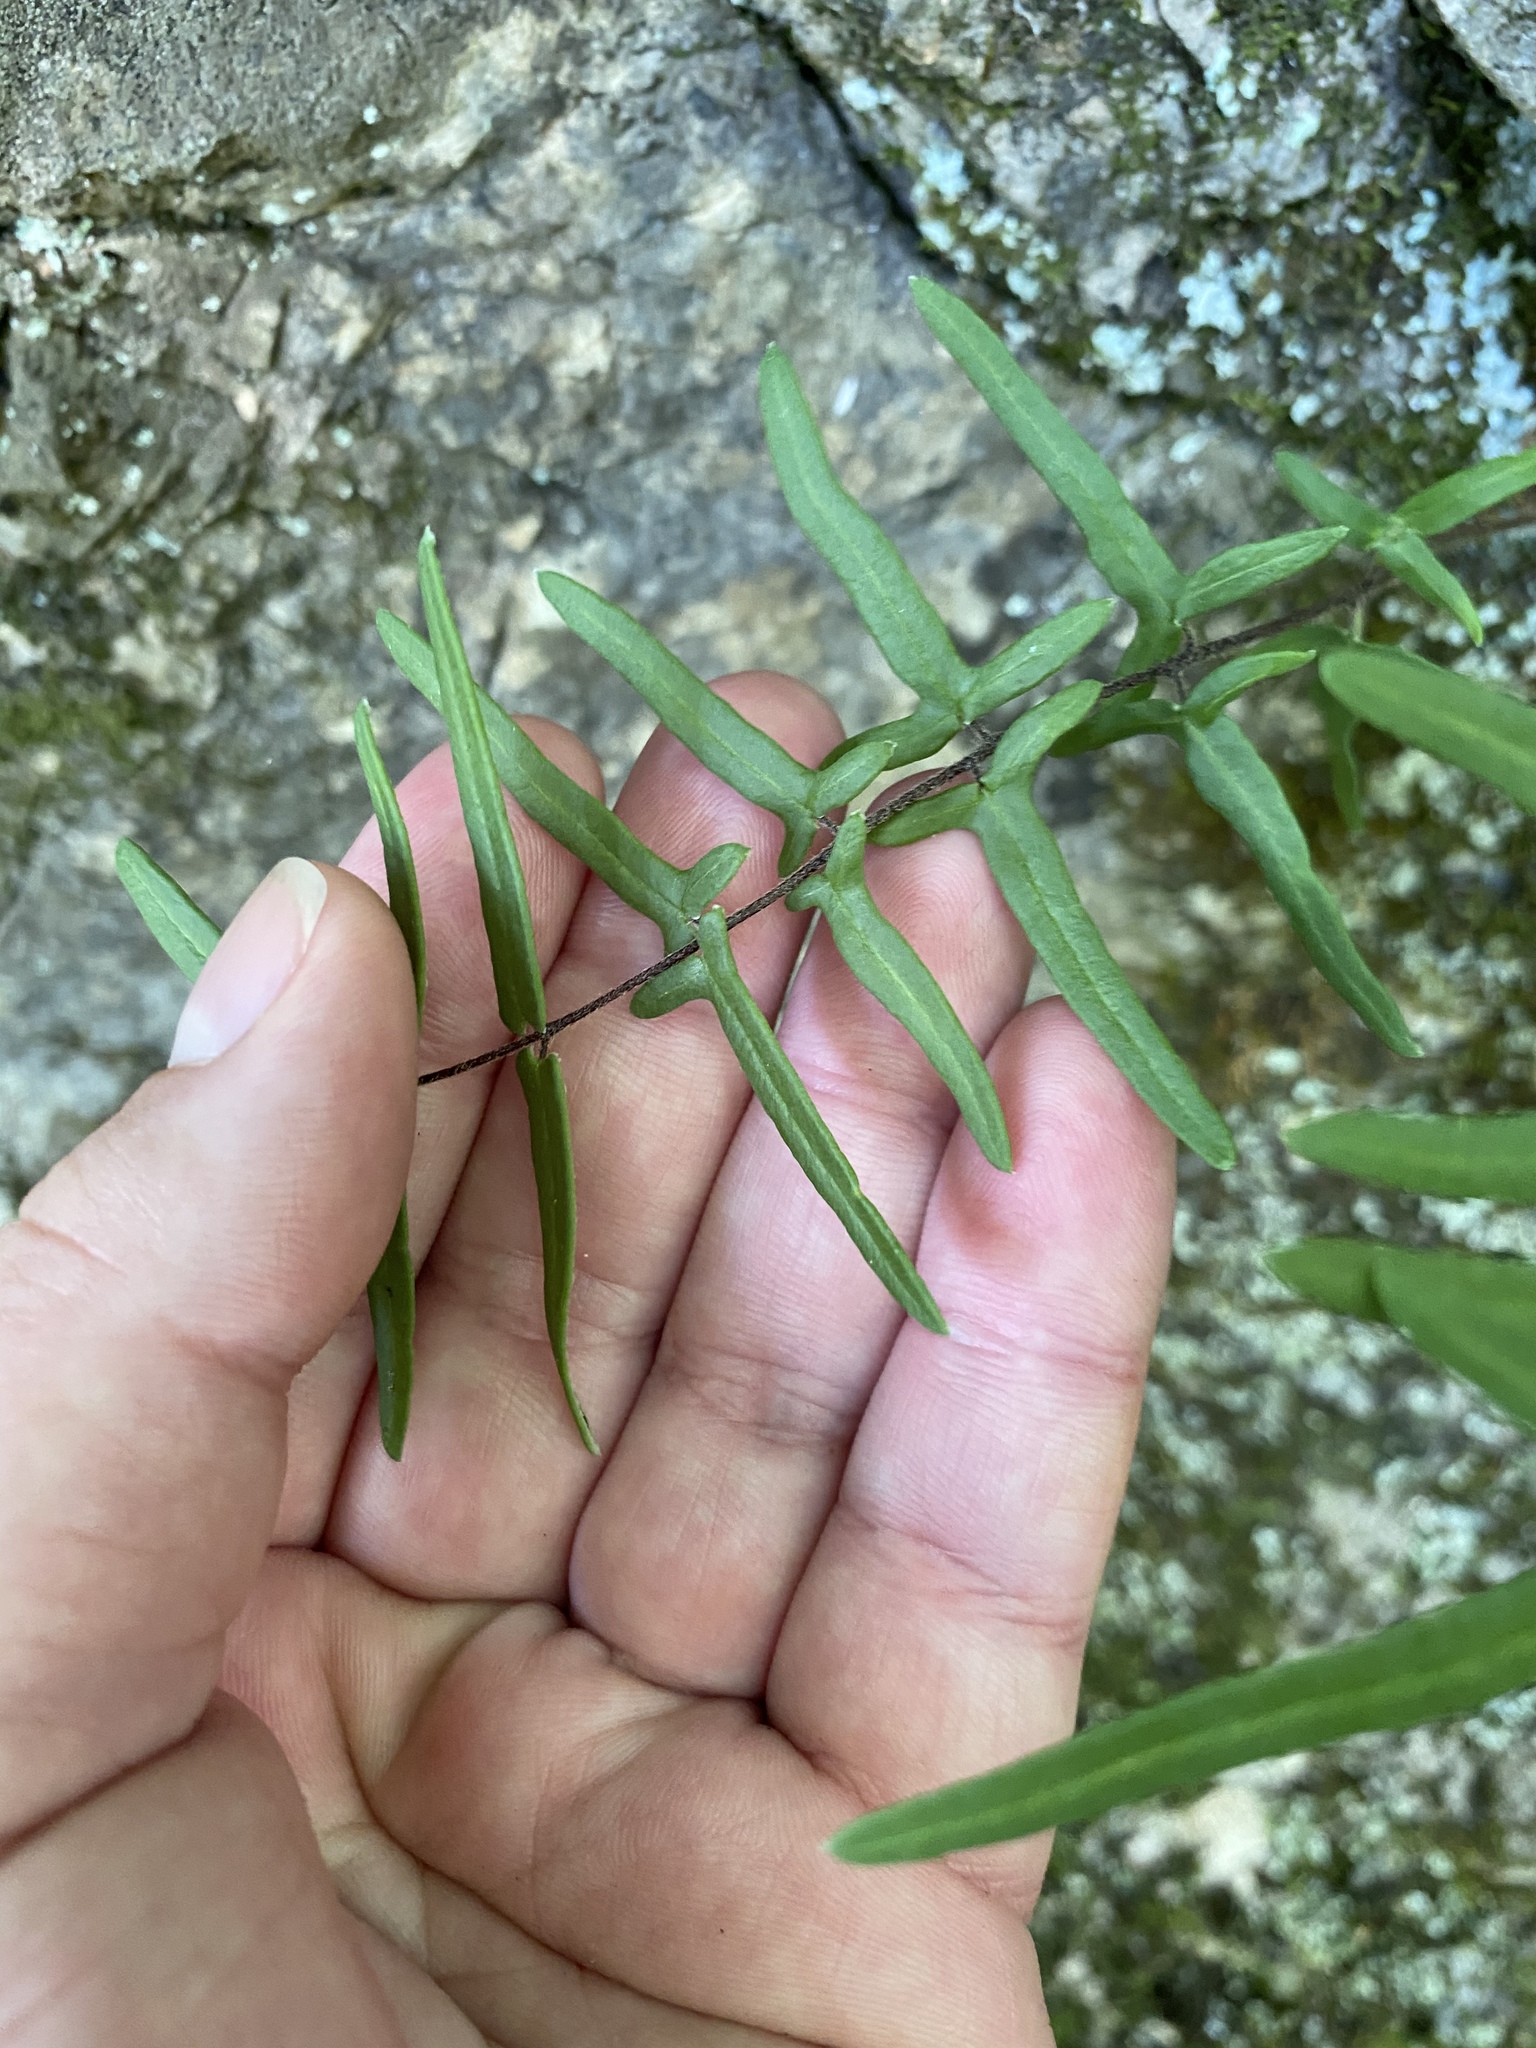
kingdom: Plantae
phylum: Tracheophyta
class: Polypodiopsida
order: Polypodiales
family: Pteridaceae
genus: Pellaea
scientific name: Pellaea atropurpurea
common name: Hairy cliffbrake
